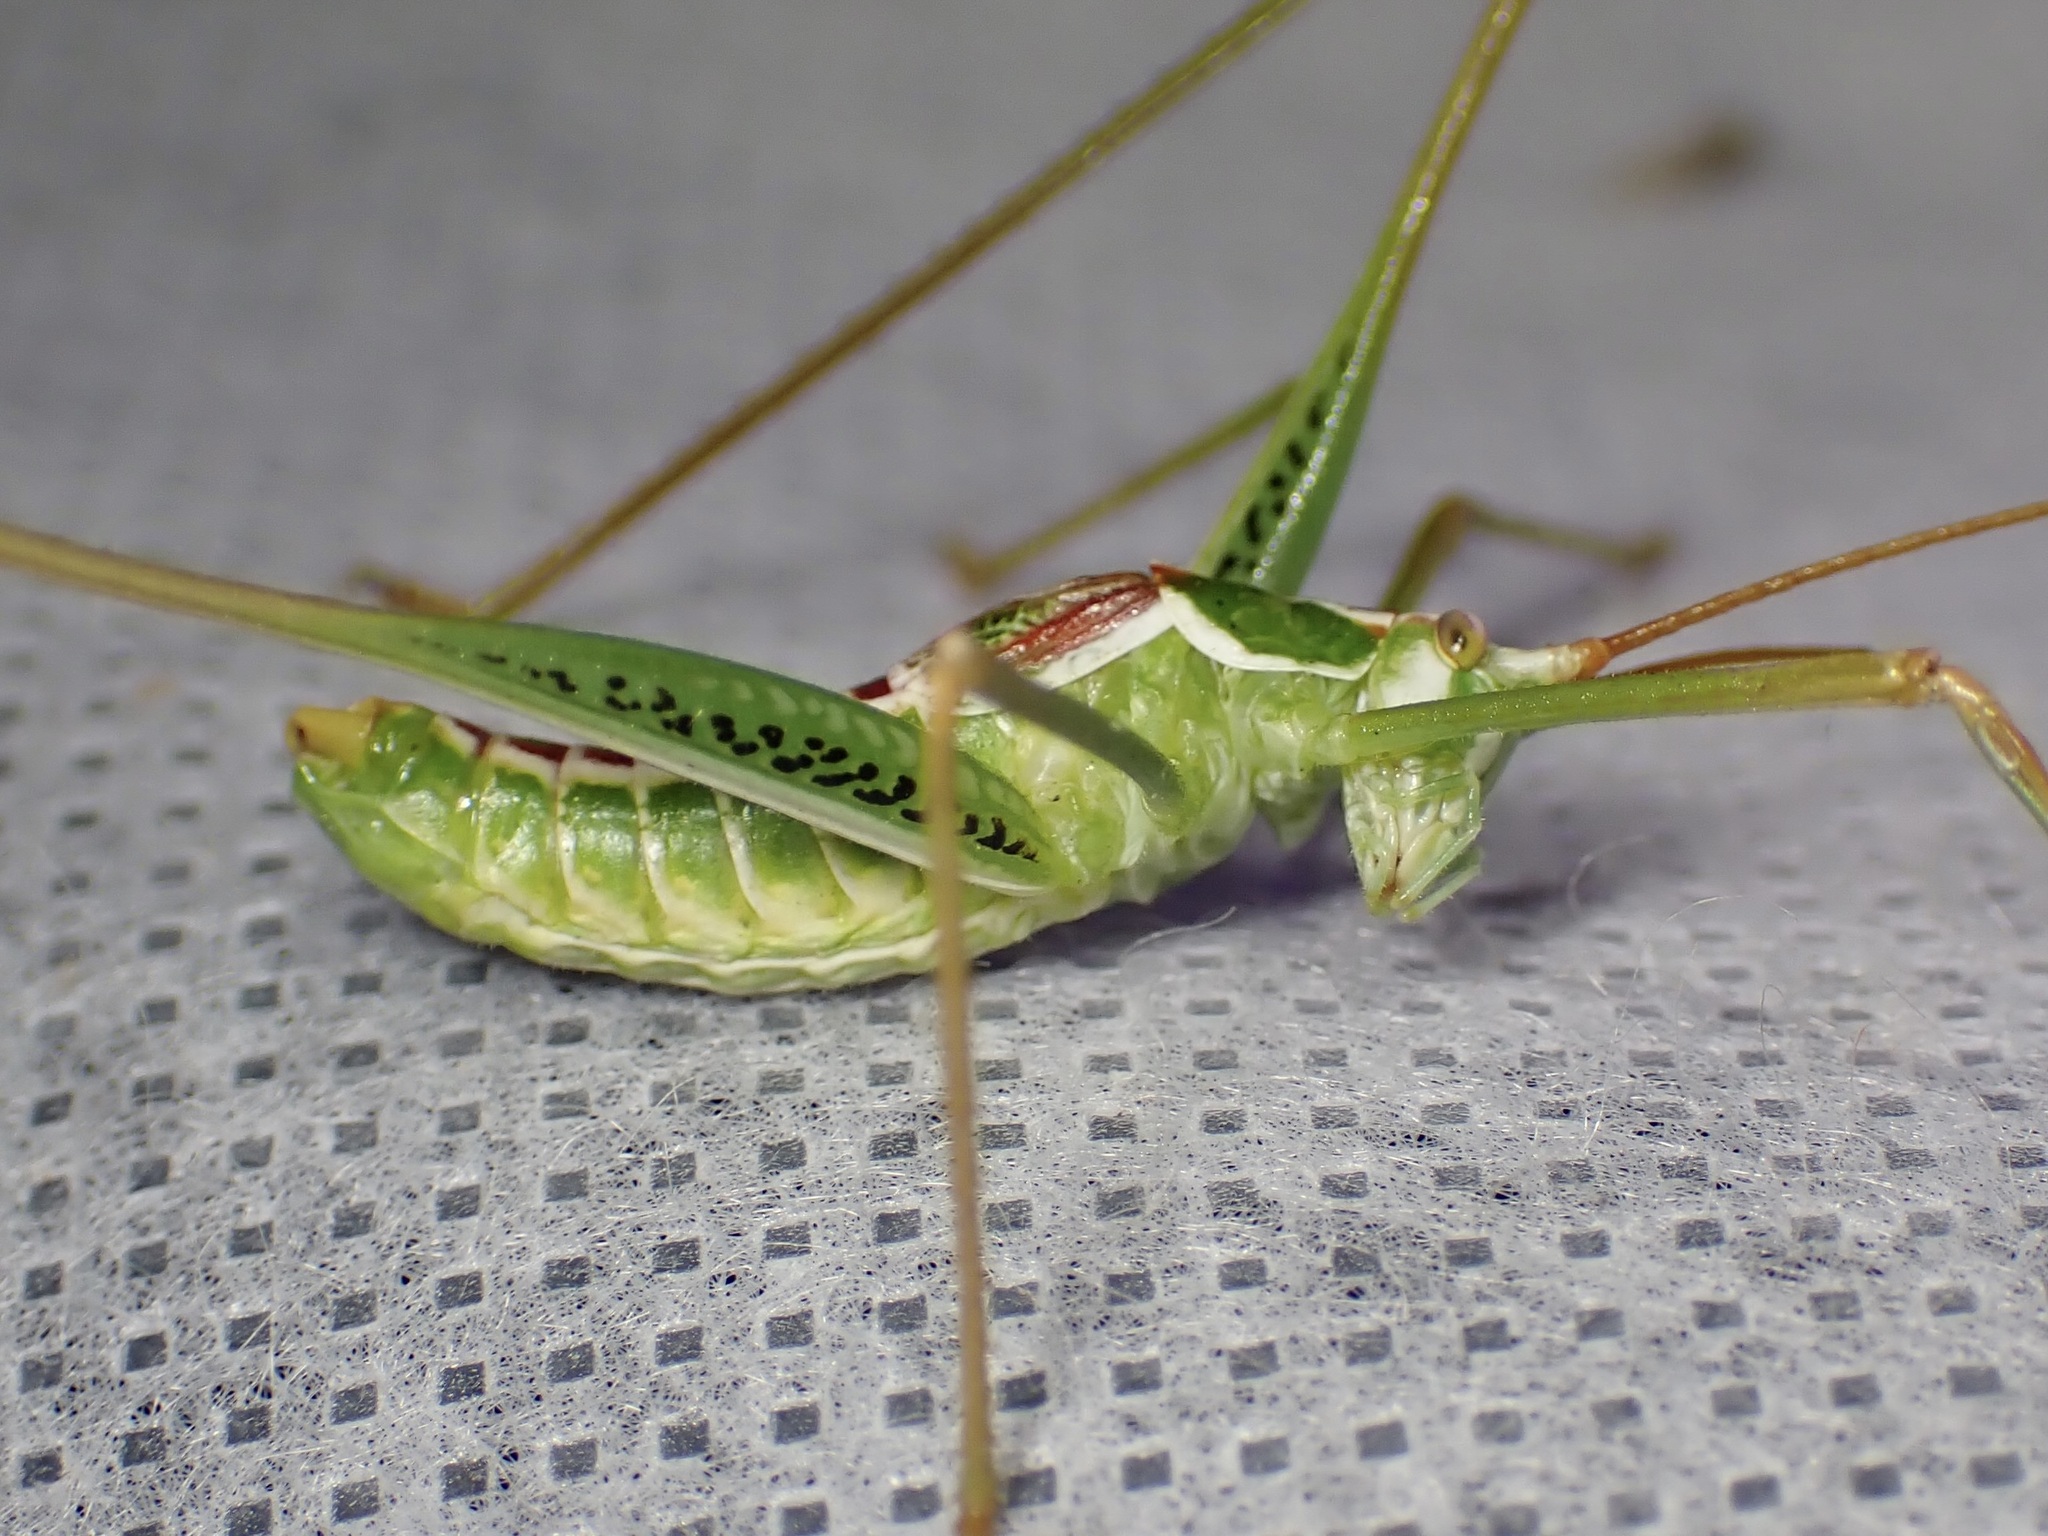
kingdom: Animalia
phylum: Arthropoda
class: Insecta
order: Orthoptera
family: Tettigoniidae
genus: Obolopteryx
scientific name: Obolopteryx brevihastata
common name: Common short-winged katydid
